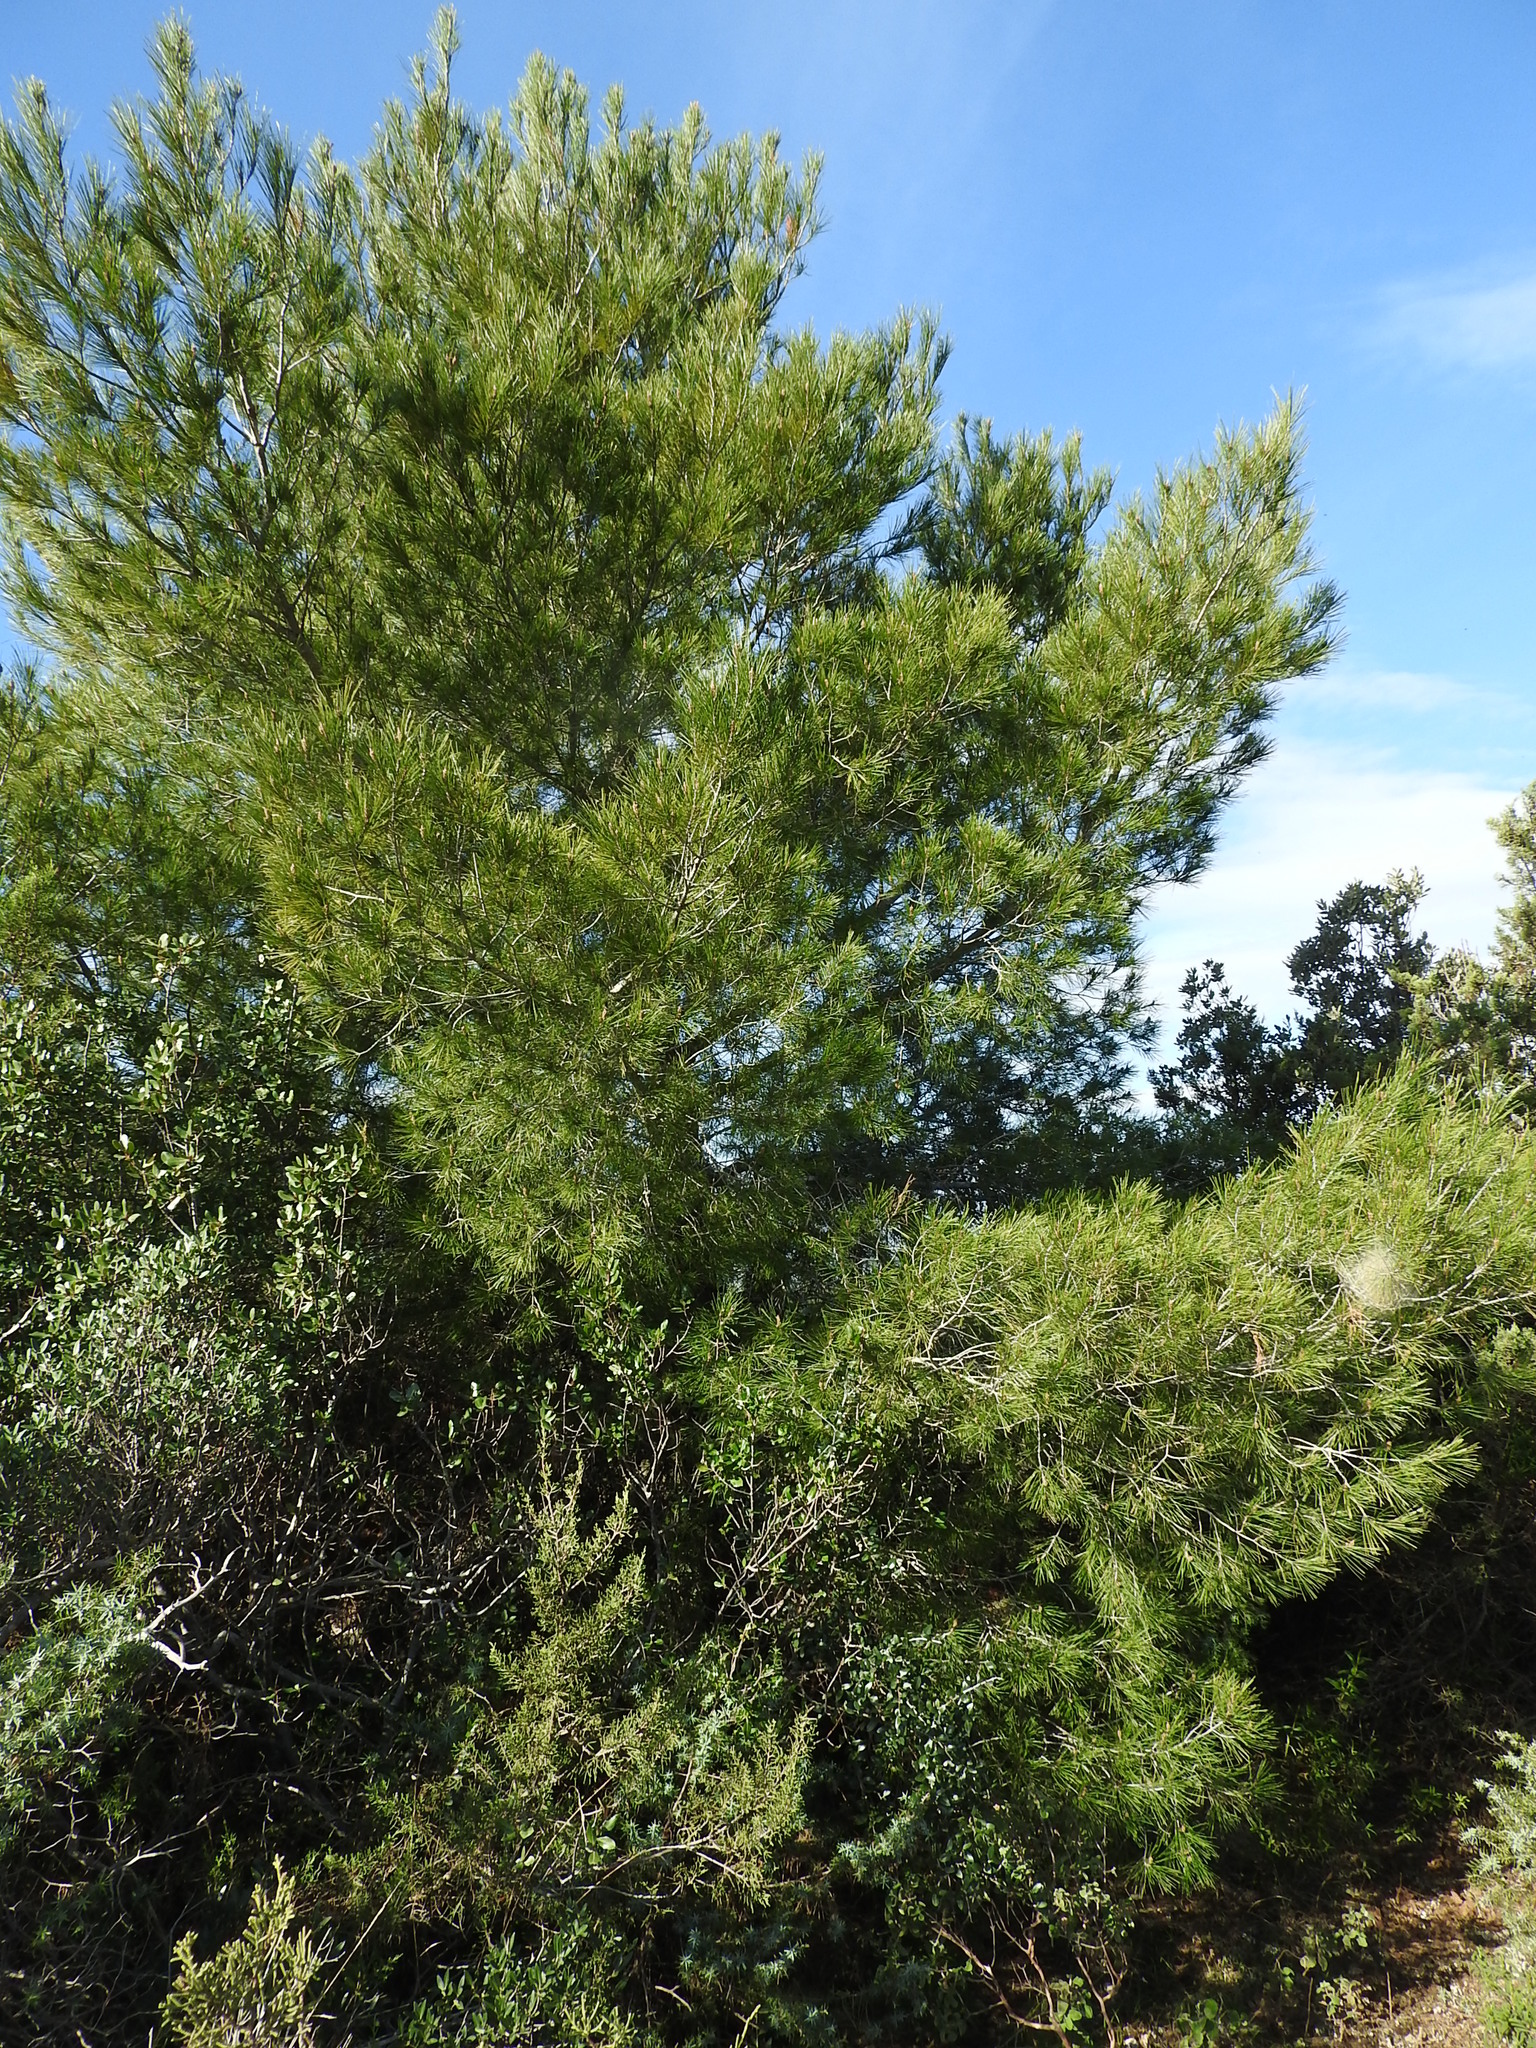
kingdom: Plantae
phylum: Tracheophyta
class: Pinopsida
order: Pinales
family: Pinaceae
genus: Pinus
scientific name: Pinus halepensis
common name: Aleppo pine
